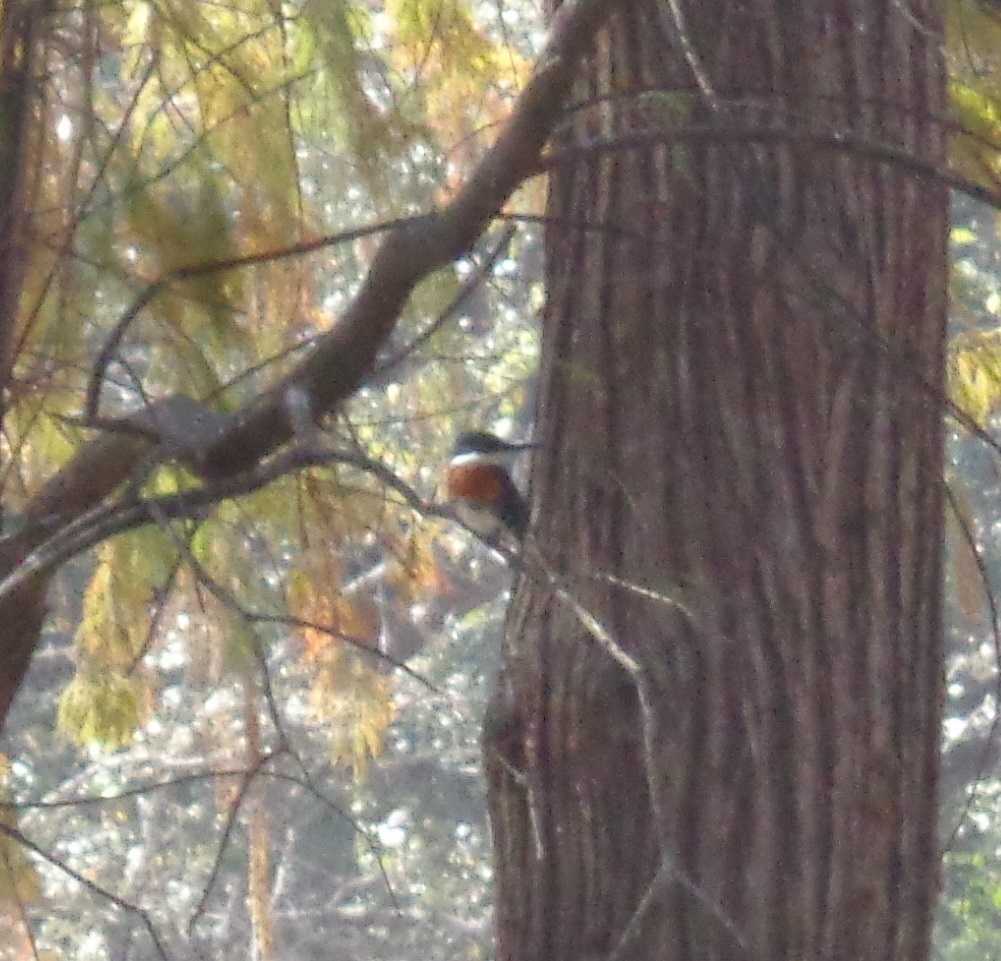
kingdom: Animalia
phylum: Chordata
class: Aves
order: Coraciiformes
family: Alcedinidae
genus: Chloroceryle
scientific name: Chloroceryle americana
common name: Green kingfisher
